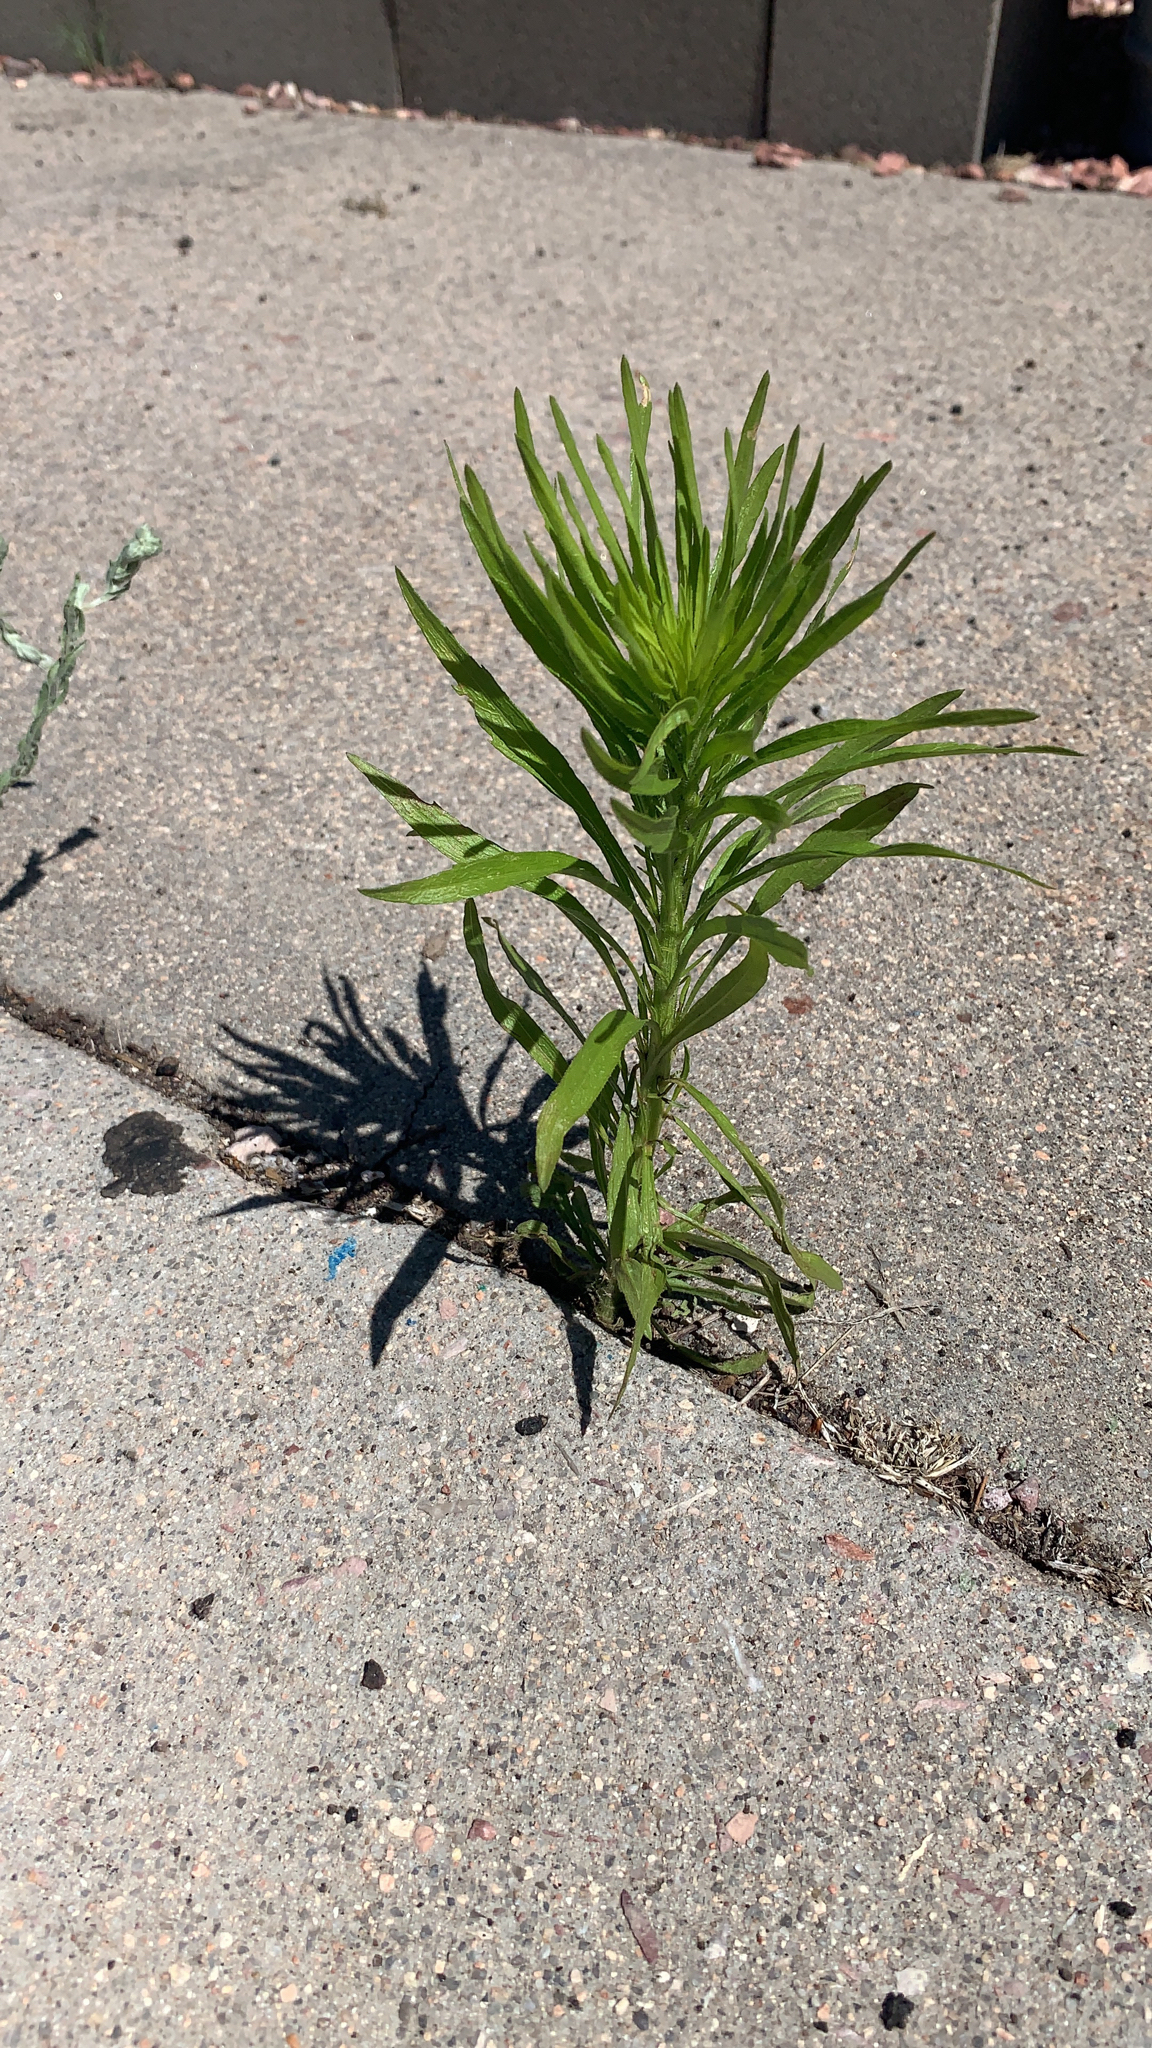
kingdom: Plantae
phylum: Tracheophyta
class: Magnoliopsida
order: Asterales
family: Asteraceae
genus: Erigeron
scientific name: Erigeron canadensis
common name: Canadian fleabane
